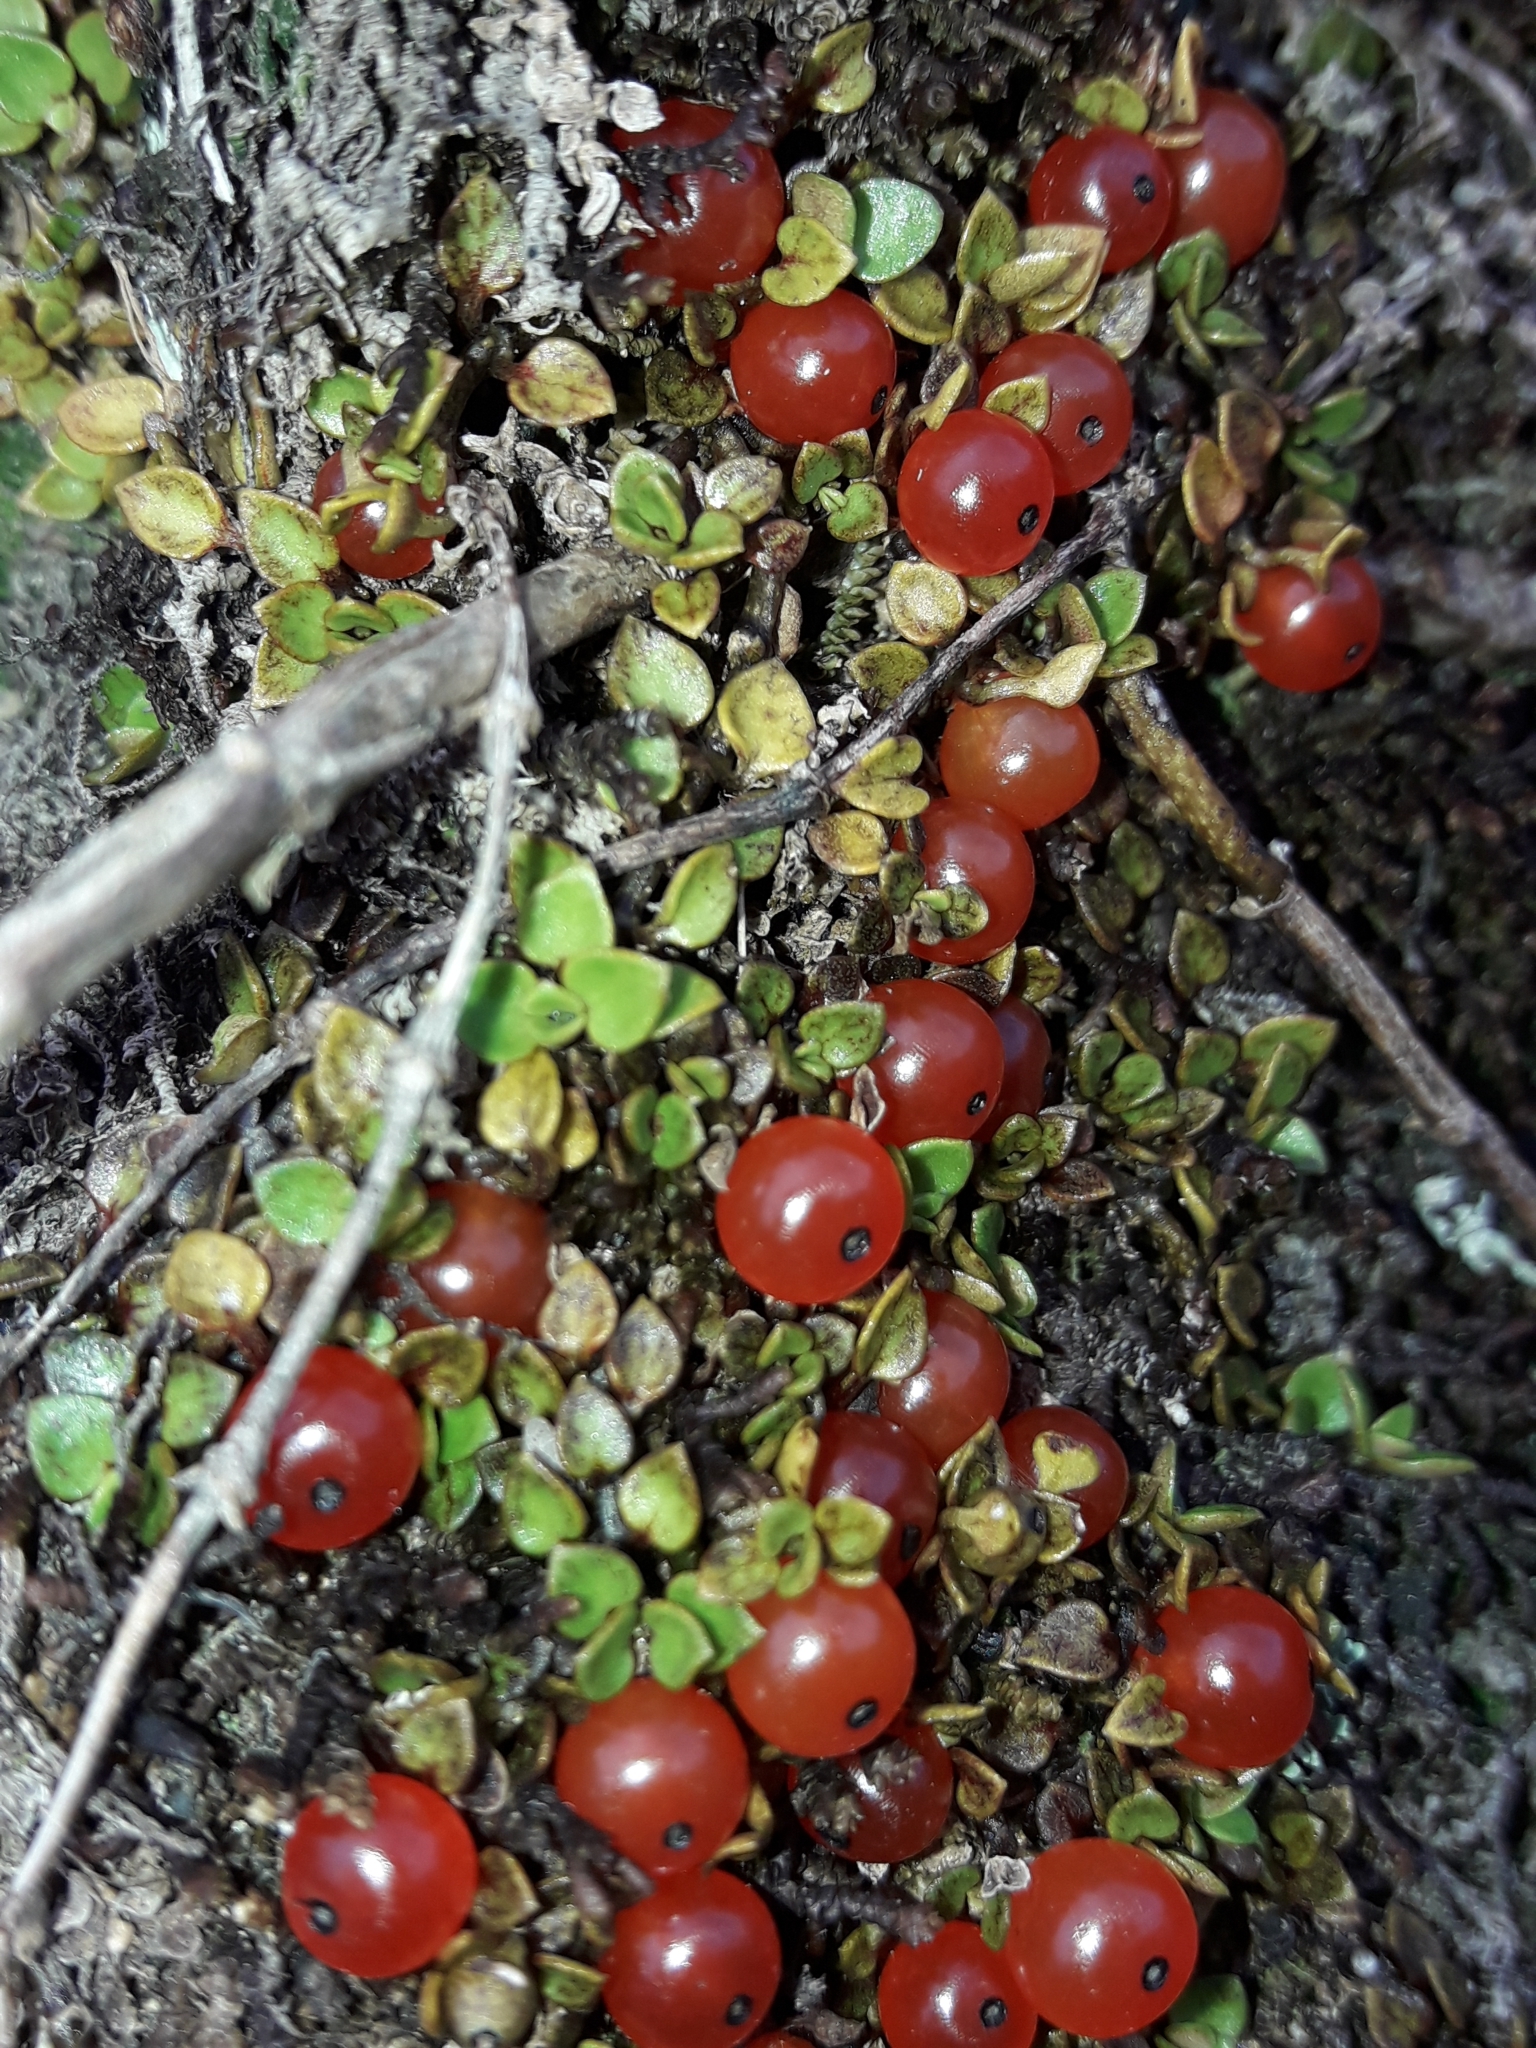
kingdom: Plantae
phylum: Tracheophyta
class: Magnoliopsida
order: Gentianales
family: Rubiaceae
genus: Nertera
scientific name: Nertera granadensis
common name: Beadplant
